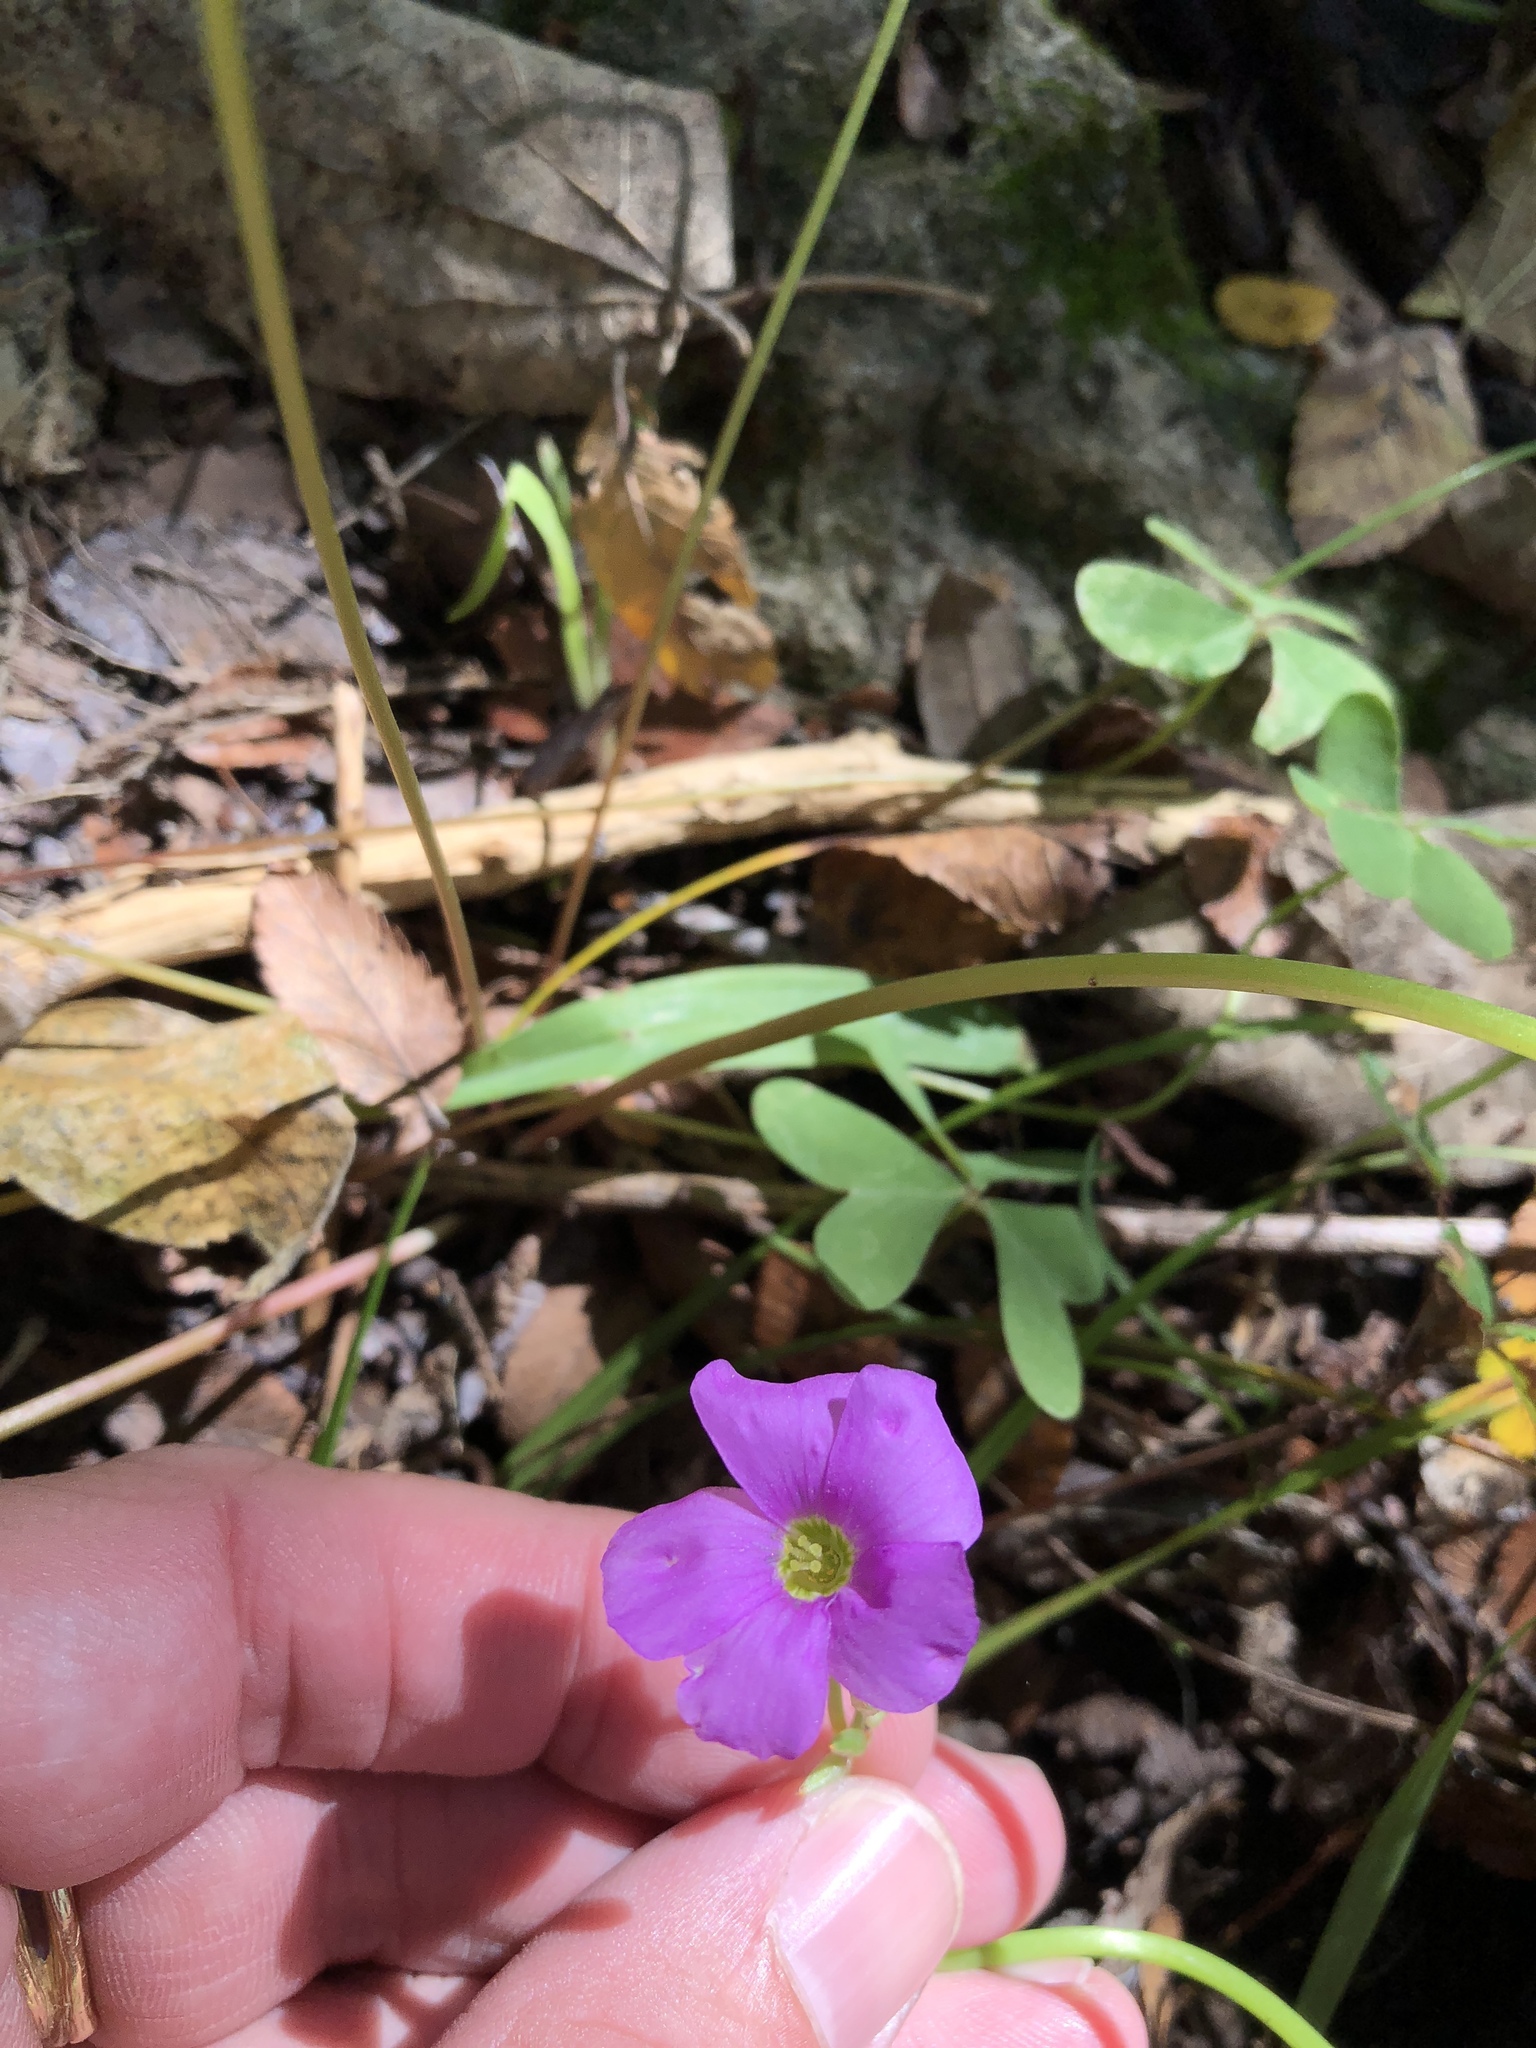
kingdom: Plantae
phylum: Tracheophyta
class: Magnoliopsida
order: Oxalidales
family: Oxalidaceae
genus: Oxalis
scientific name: Oxalis drummondii
